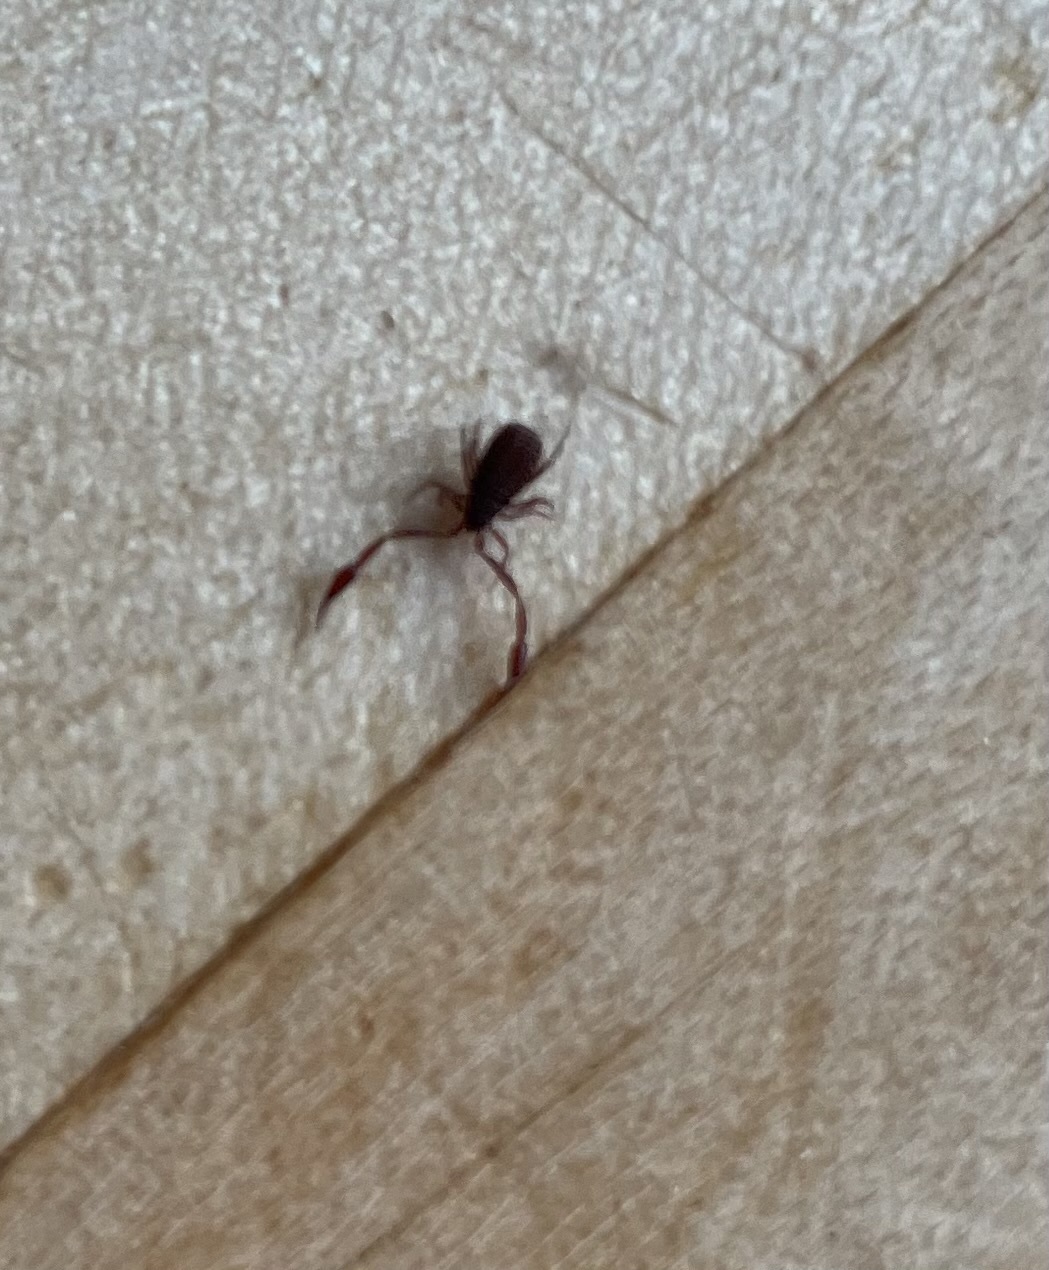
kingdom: Animalia
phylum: Arthropoda
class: Arachnida
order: Pseudoscorpiones
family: Cheliferidae
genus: Chelifer
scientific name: Chelifer cancroides
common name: House false-scorpion
